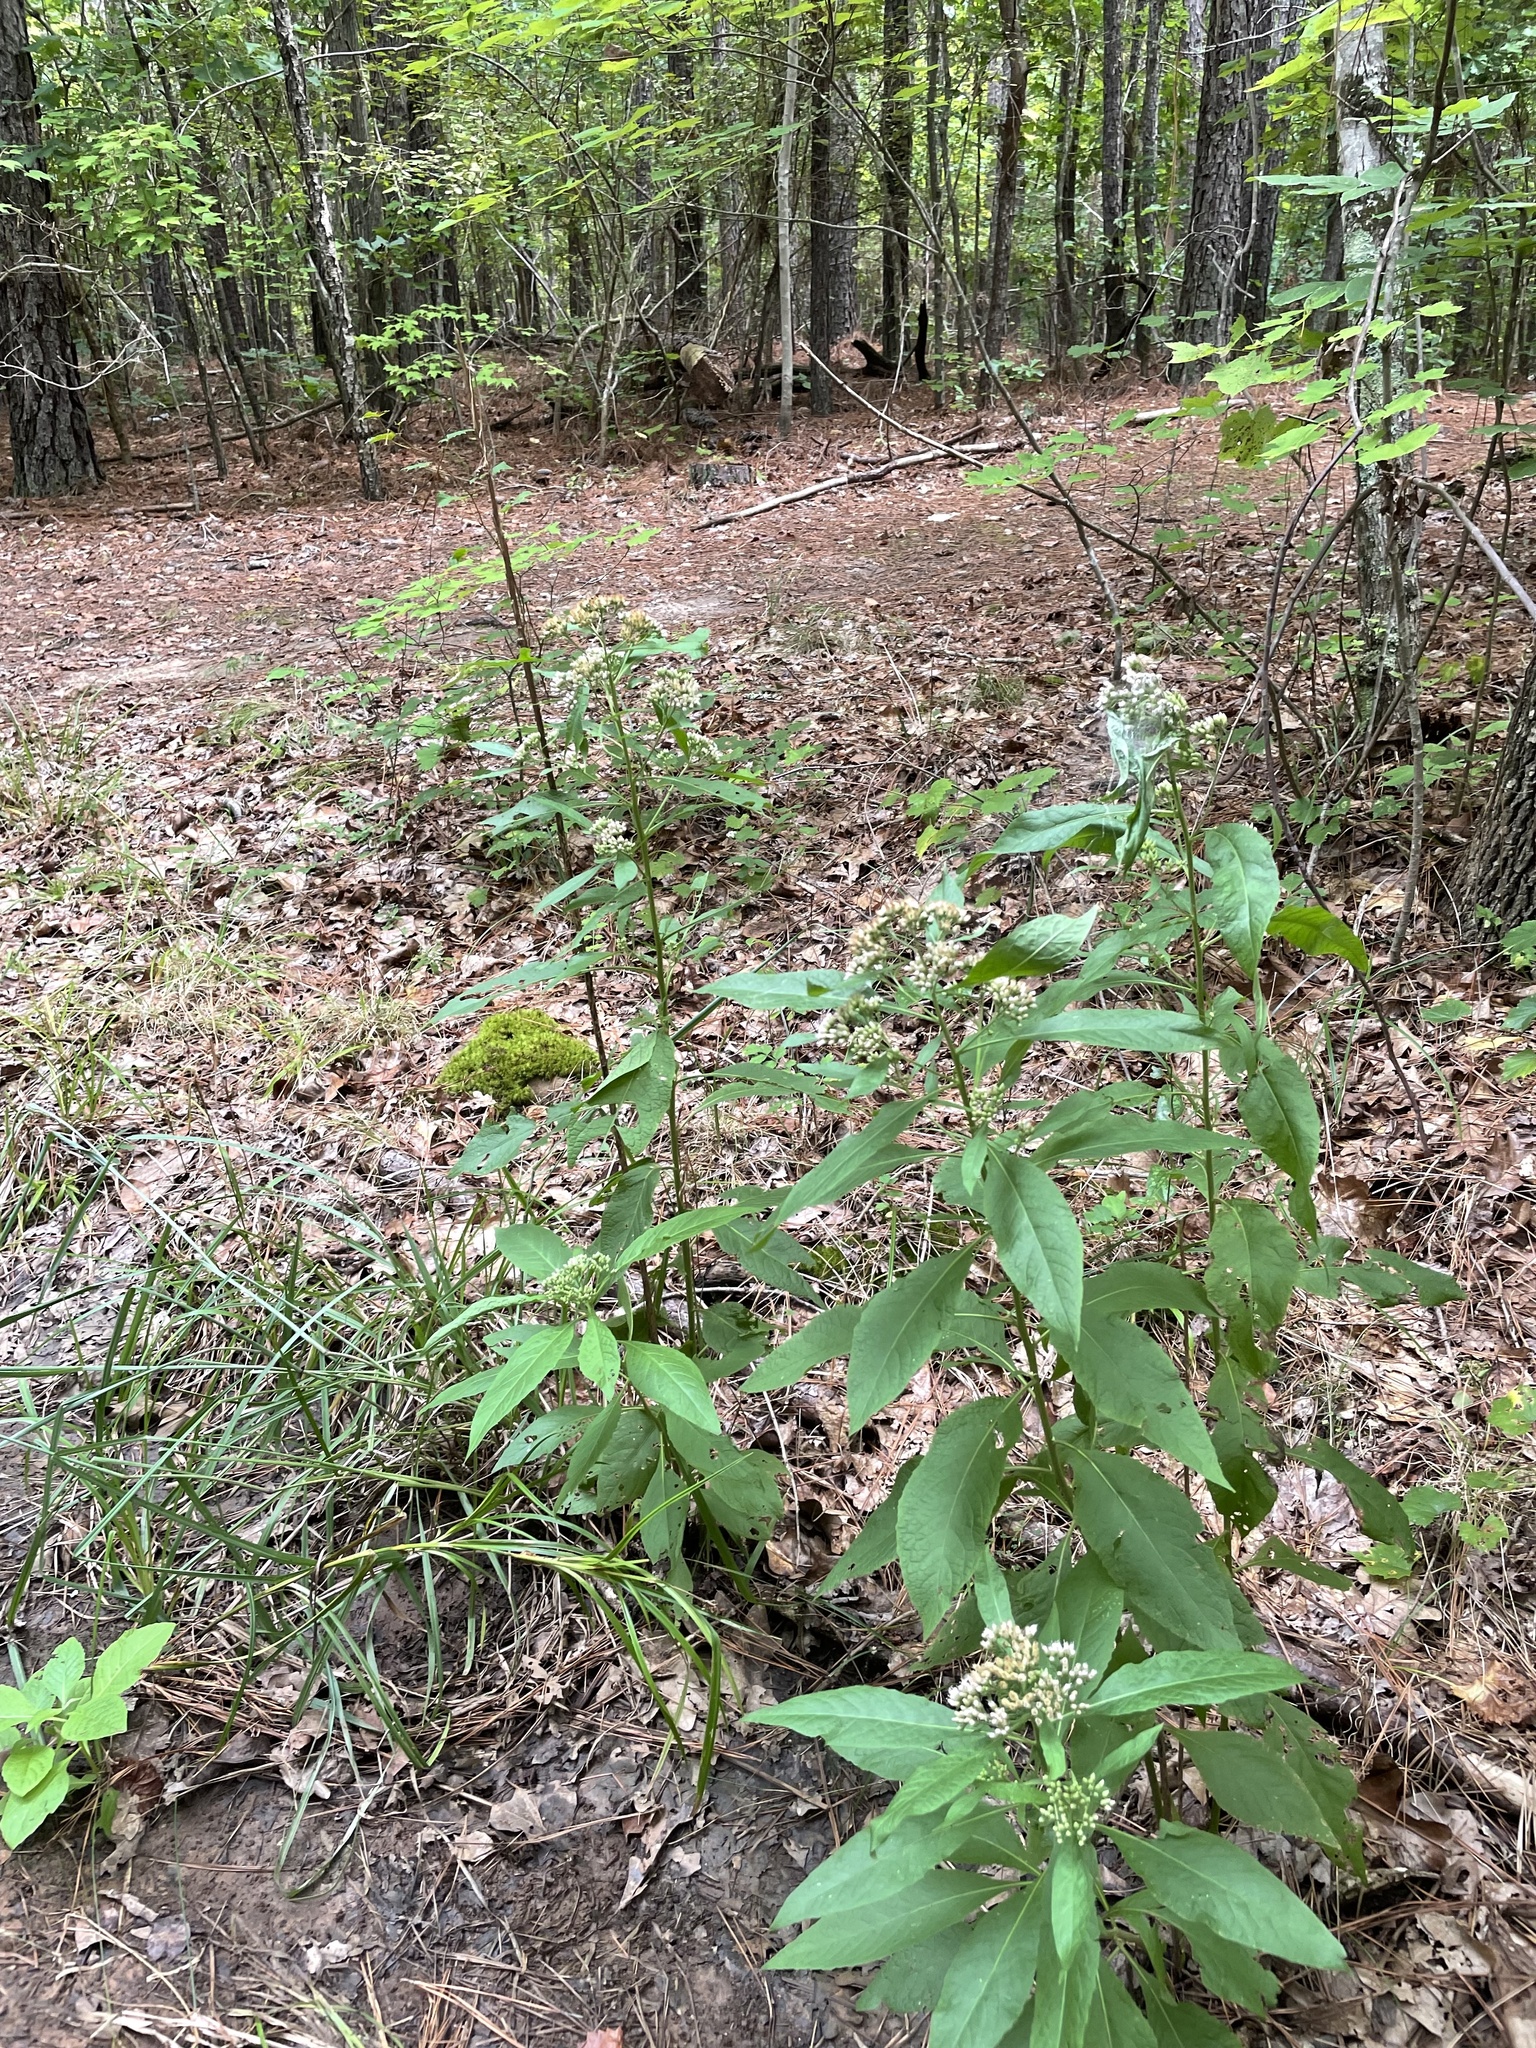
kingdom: Plantae
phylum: Tracheophyta
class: Magnoliopsida
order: Asterales
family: Asteraceae
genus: Pluchea
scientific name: Pluchea camphorata
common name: Camphor pluchea
